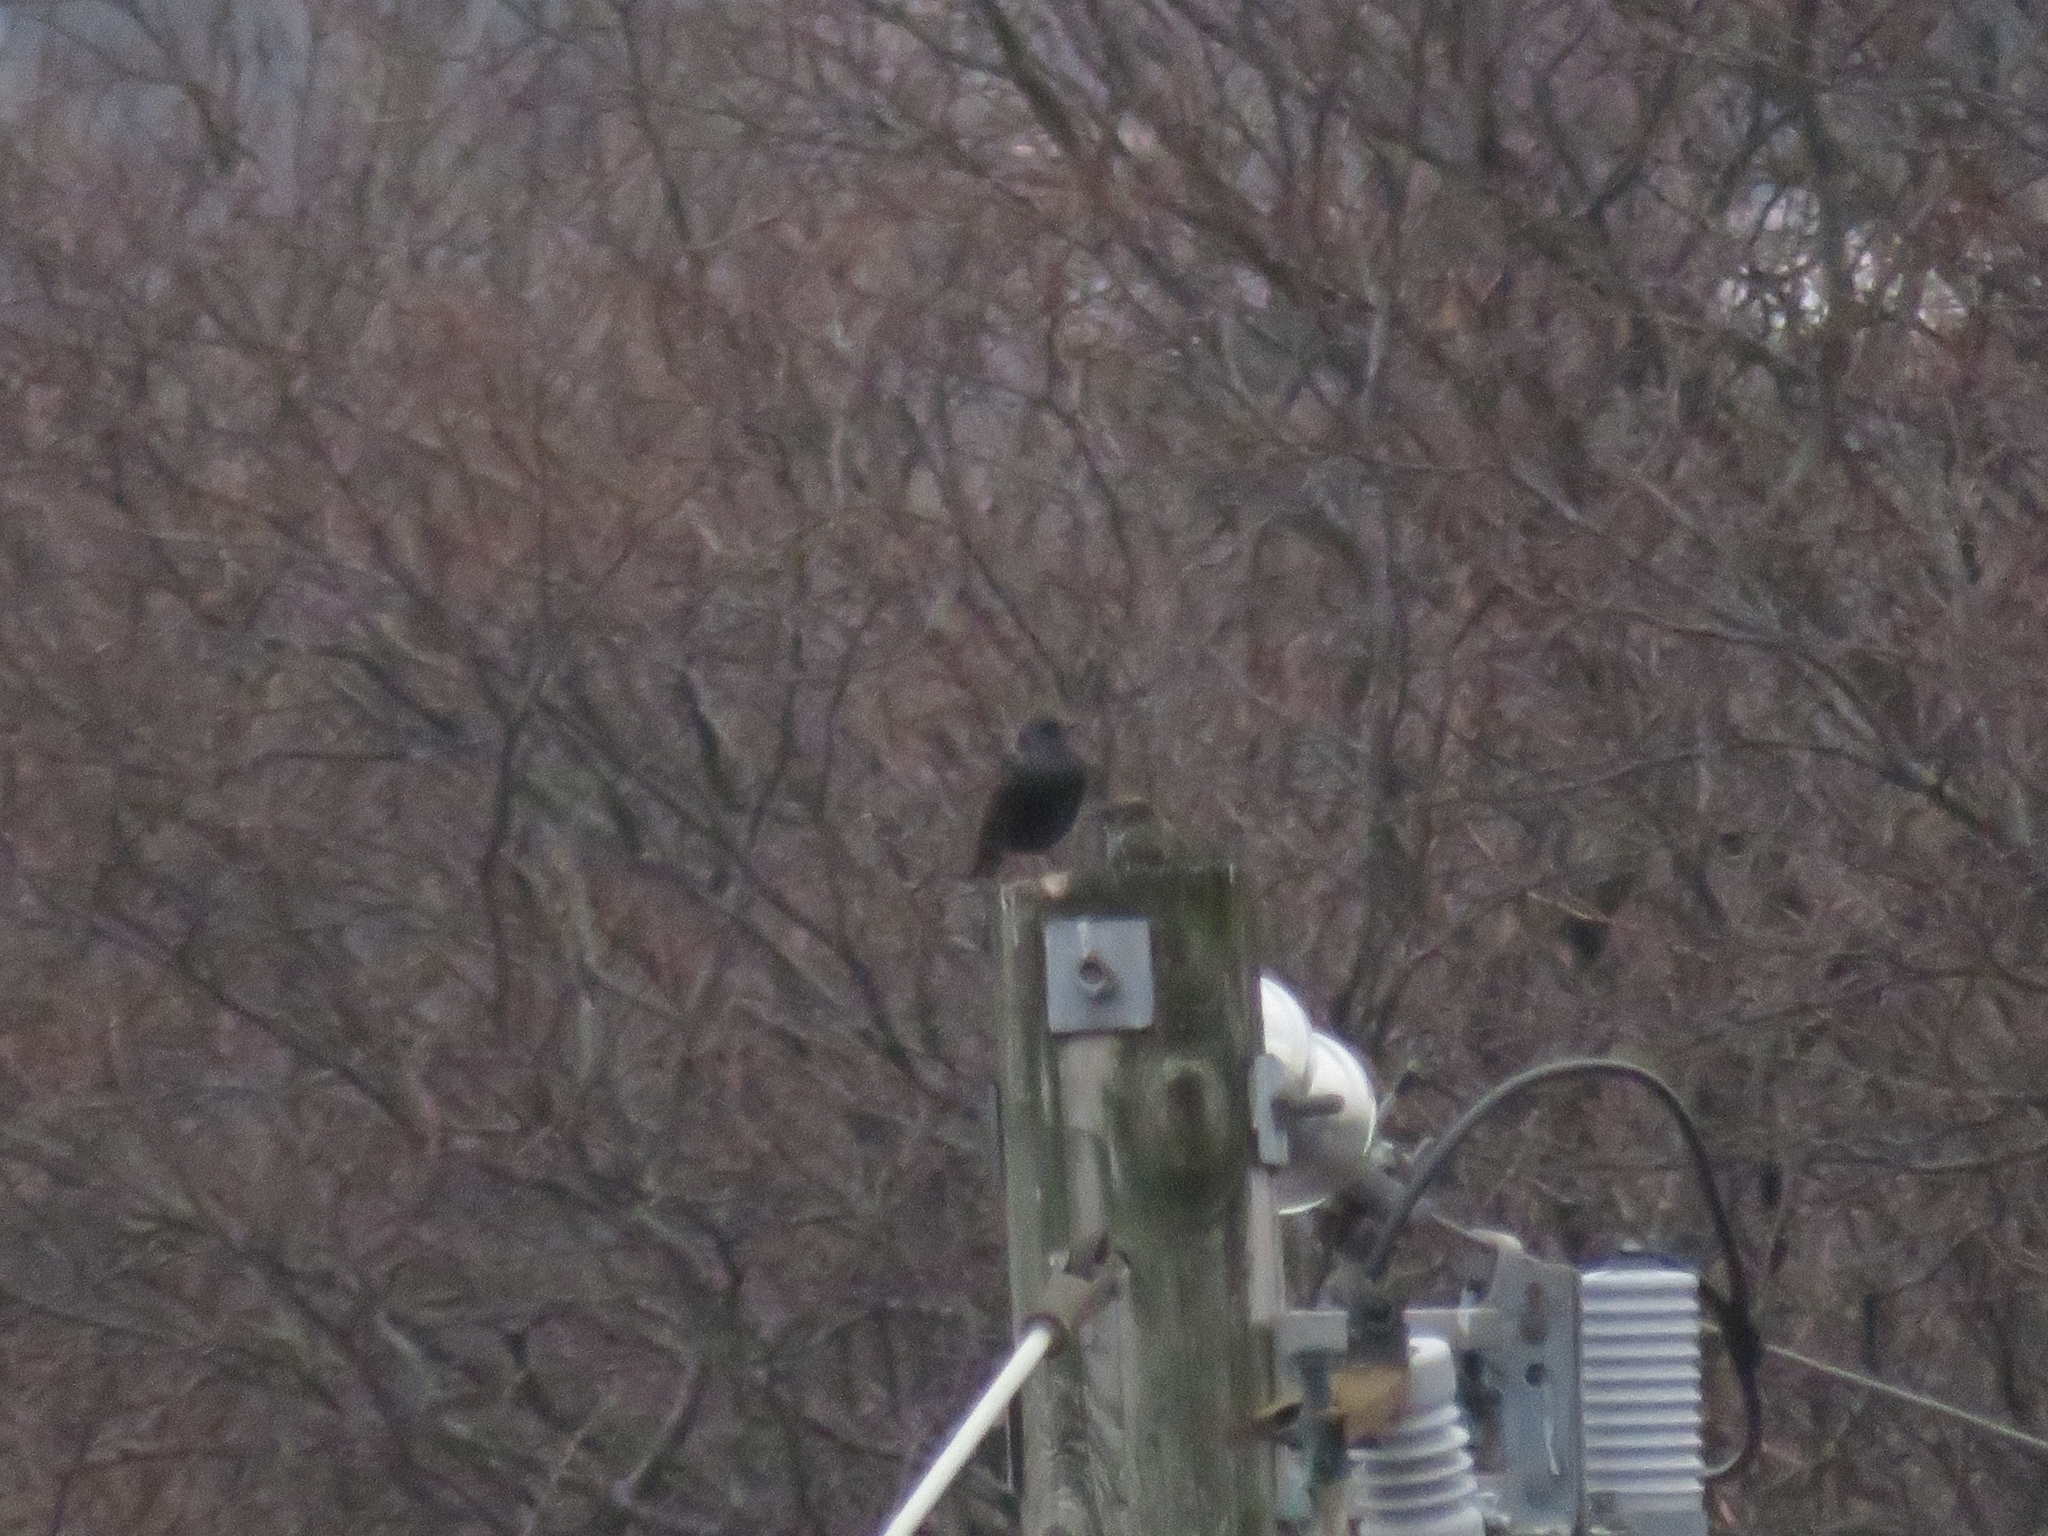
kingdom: Animalia
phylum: Chordata
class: Aves
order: Passeriformes
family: Sturnidae
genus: Sturnus
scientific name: Sturnus vulgaris
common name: Common starling
